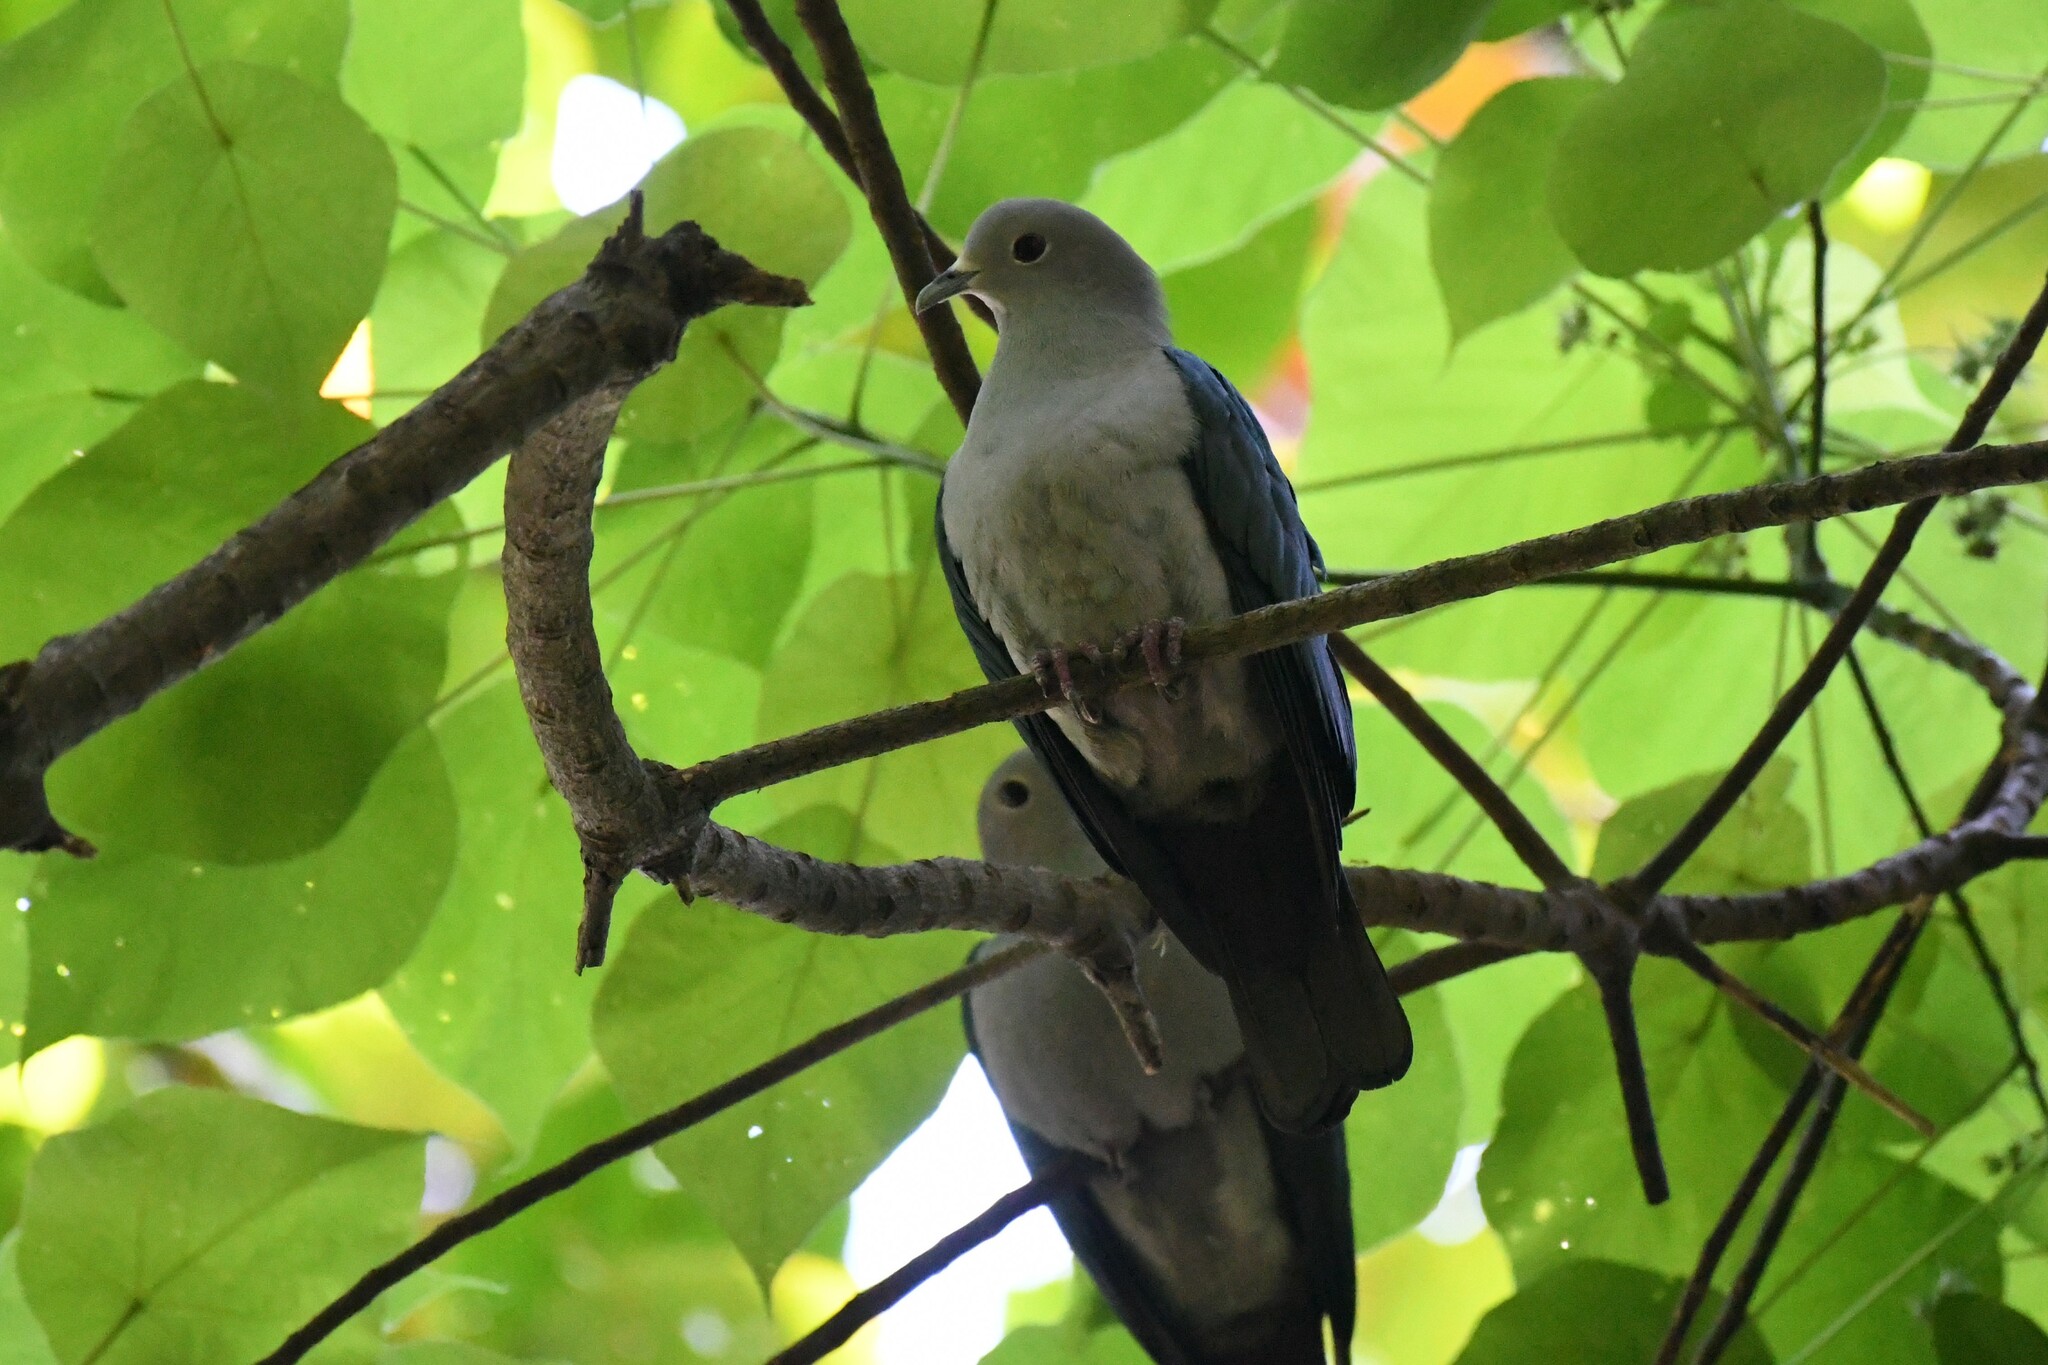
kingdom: Animalia
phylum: Chordata
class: Aves
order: Columbiformes
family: Columbidae
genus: Ducula
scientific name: Ducula aenea
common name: Green imperial pigeon
